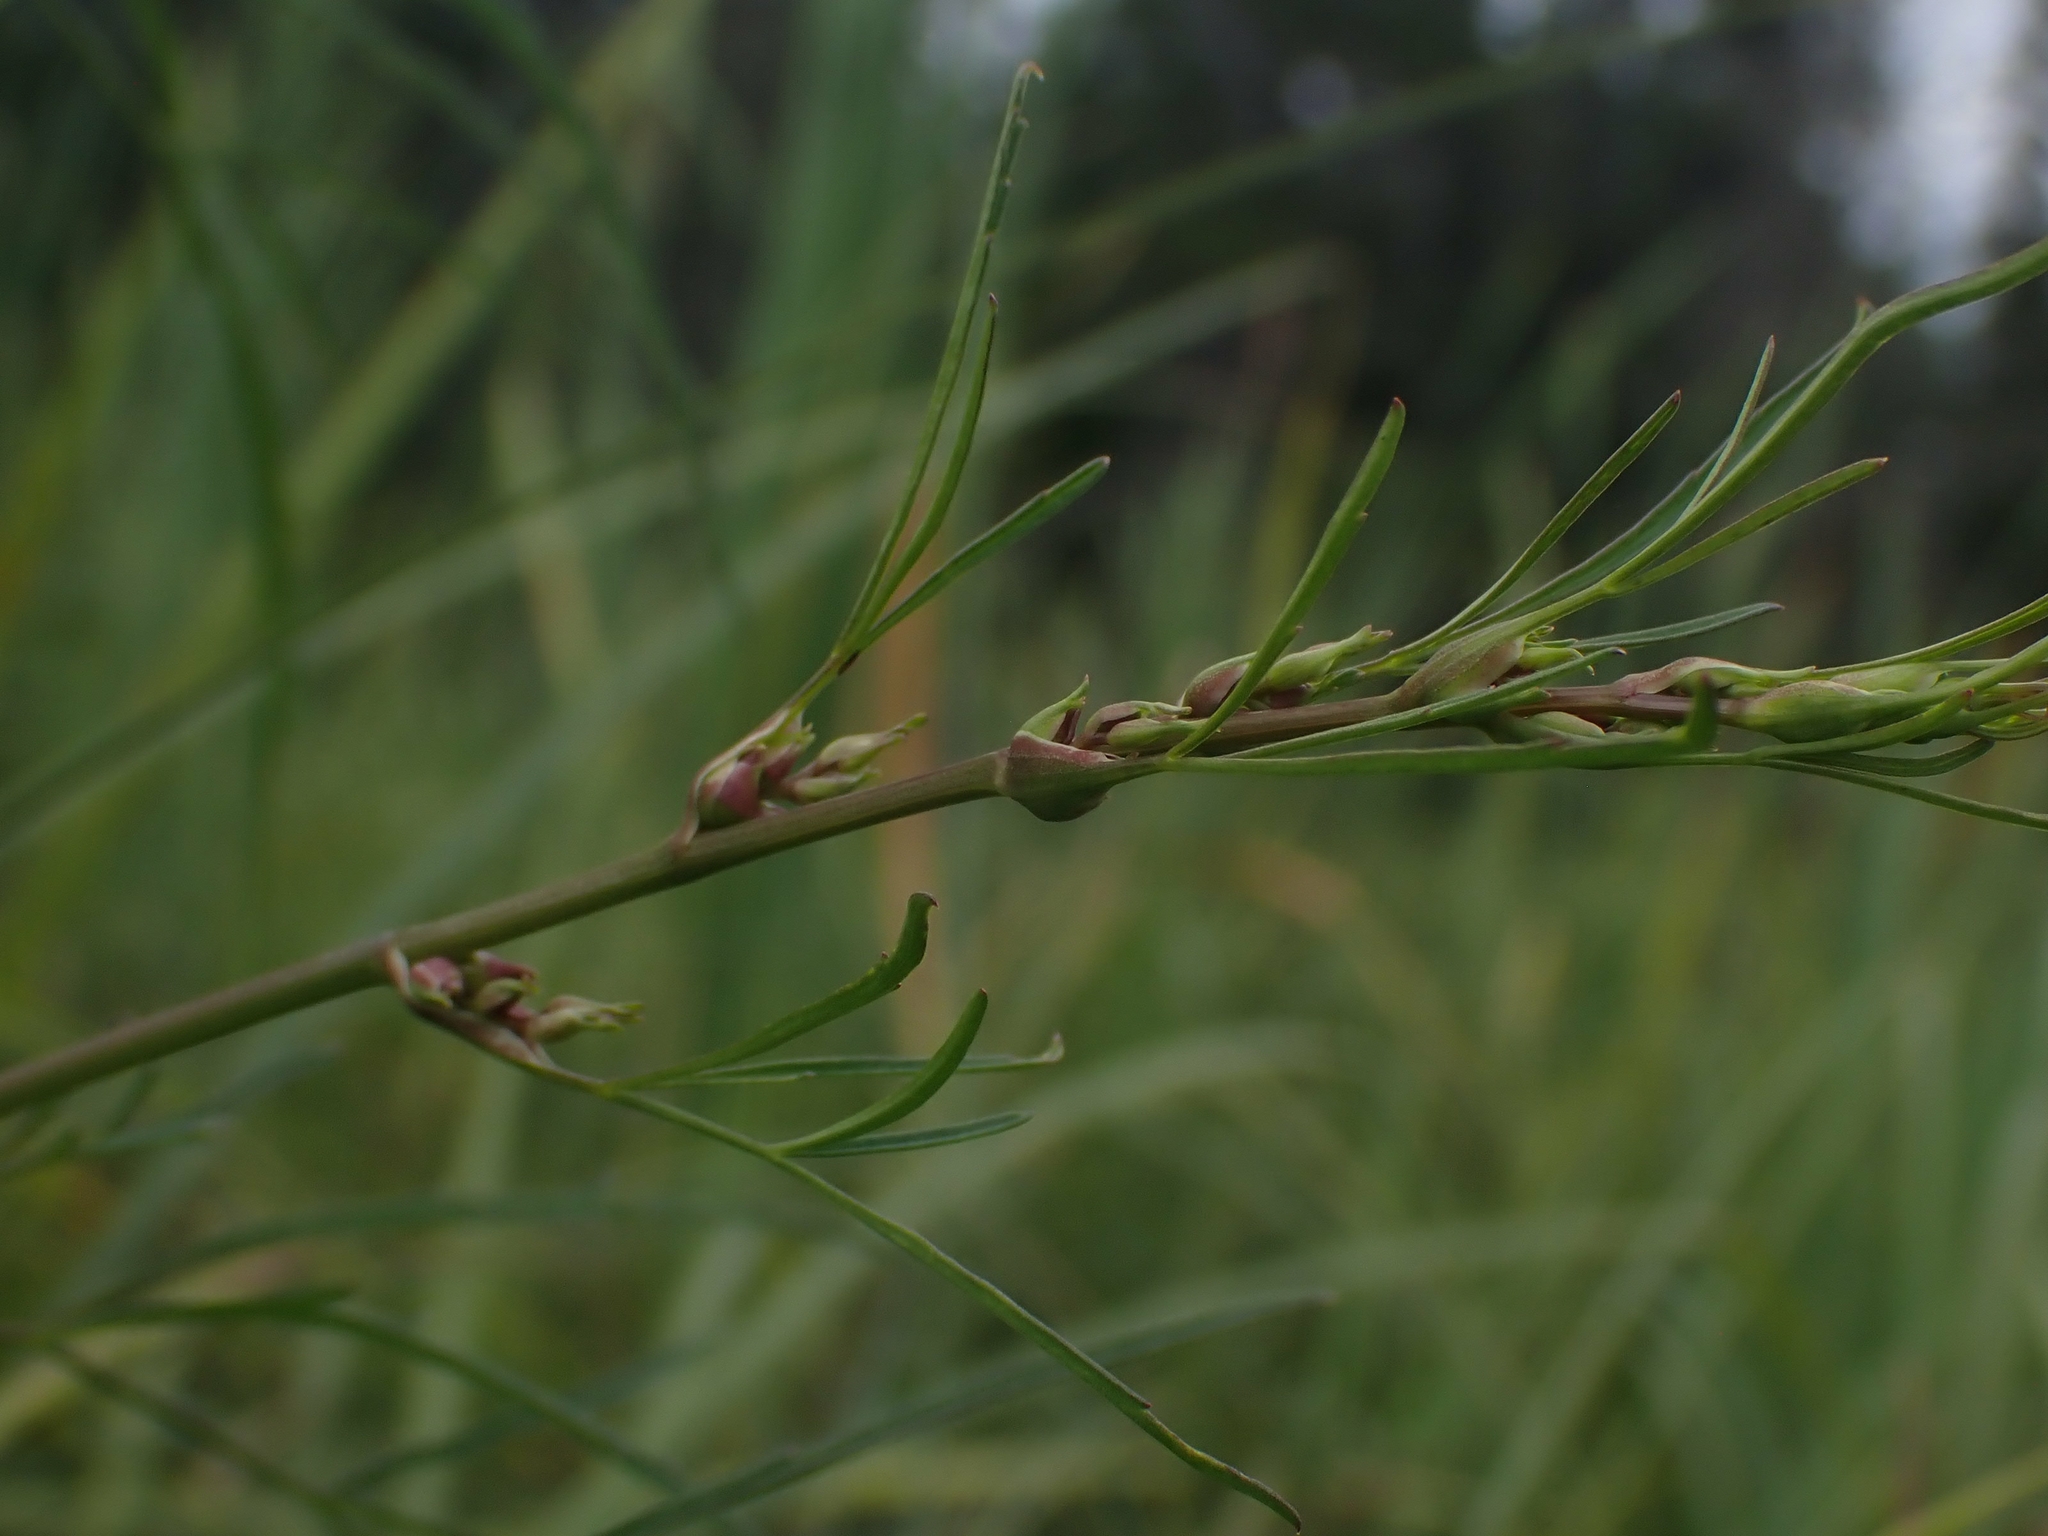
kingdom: Plantae
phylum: Tracheophyta
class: Magnoliopsida
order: Apiales
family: Apiaceae
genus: Cicuta
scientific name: Cicuta bulbifera
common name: Bulb-bearing water-hemlock
